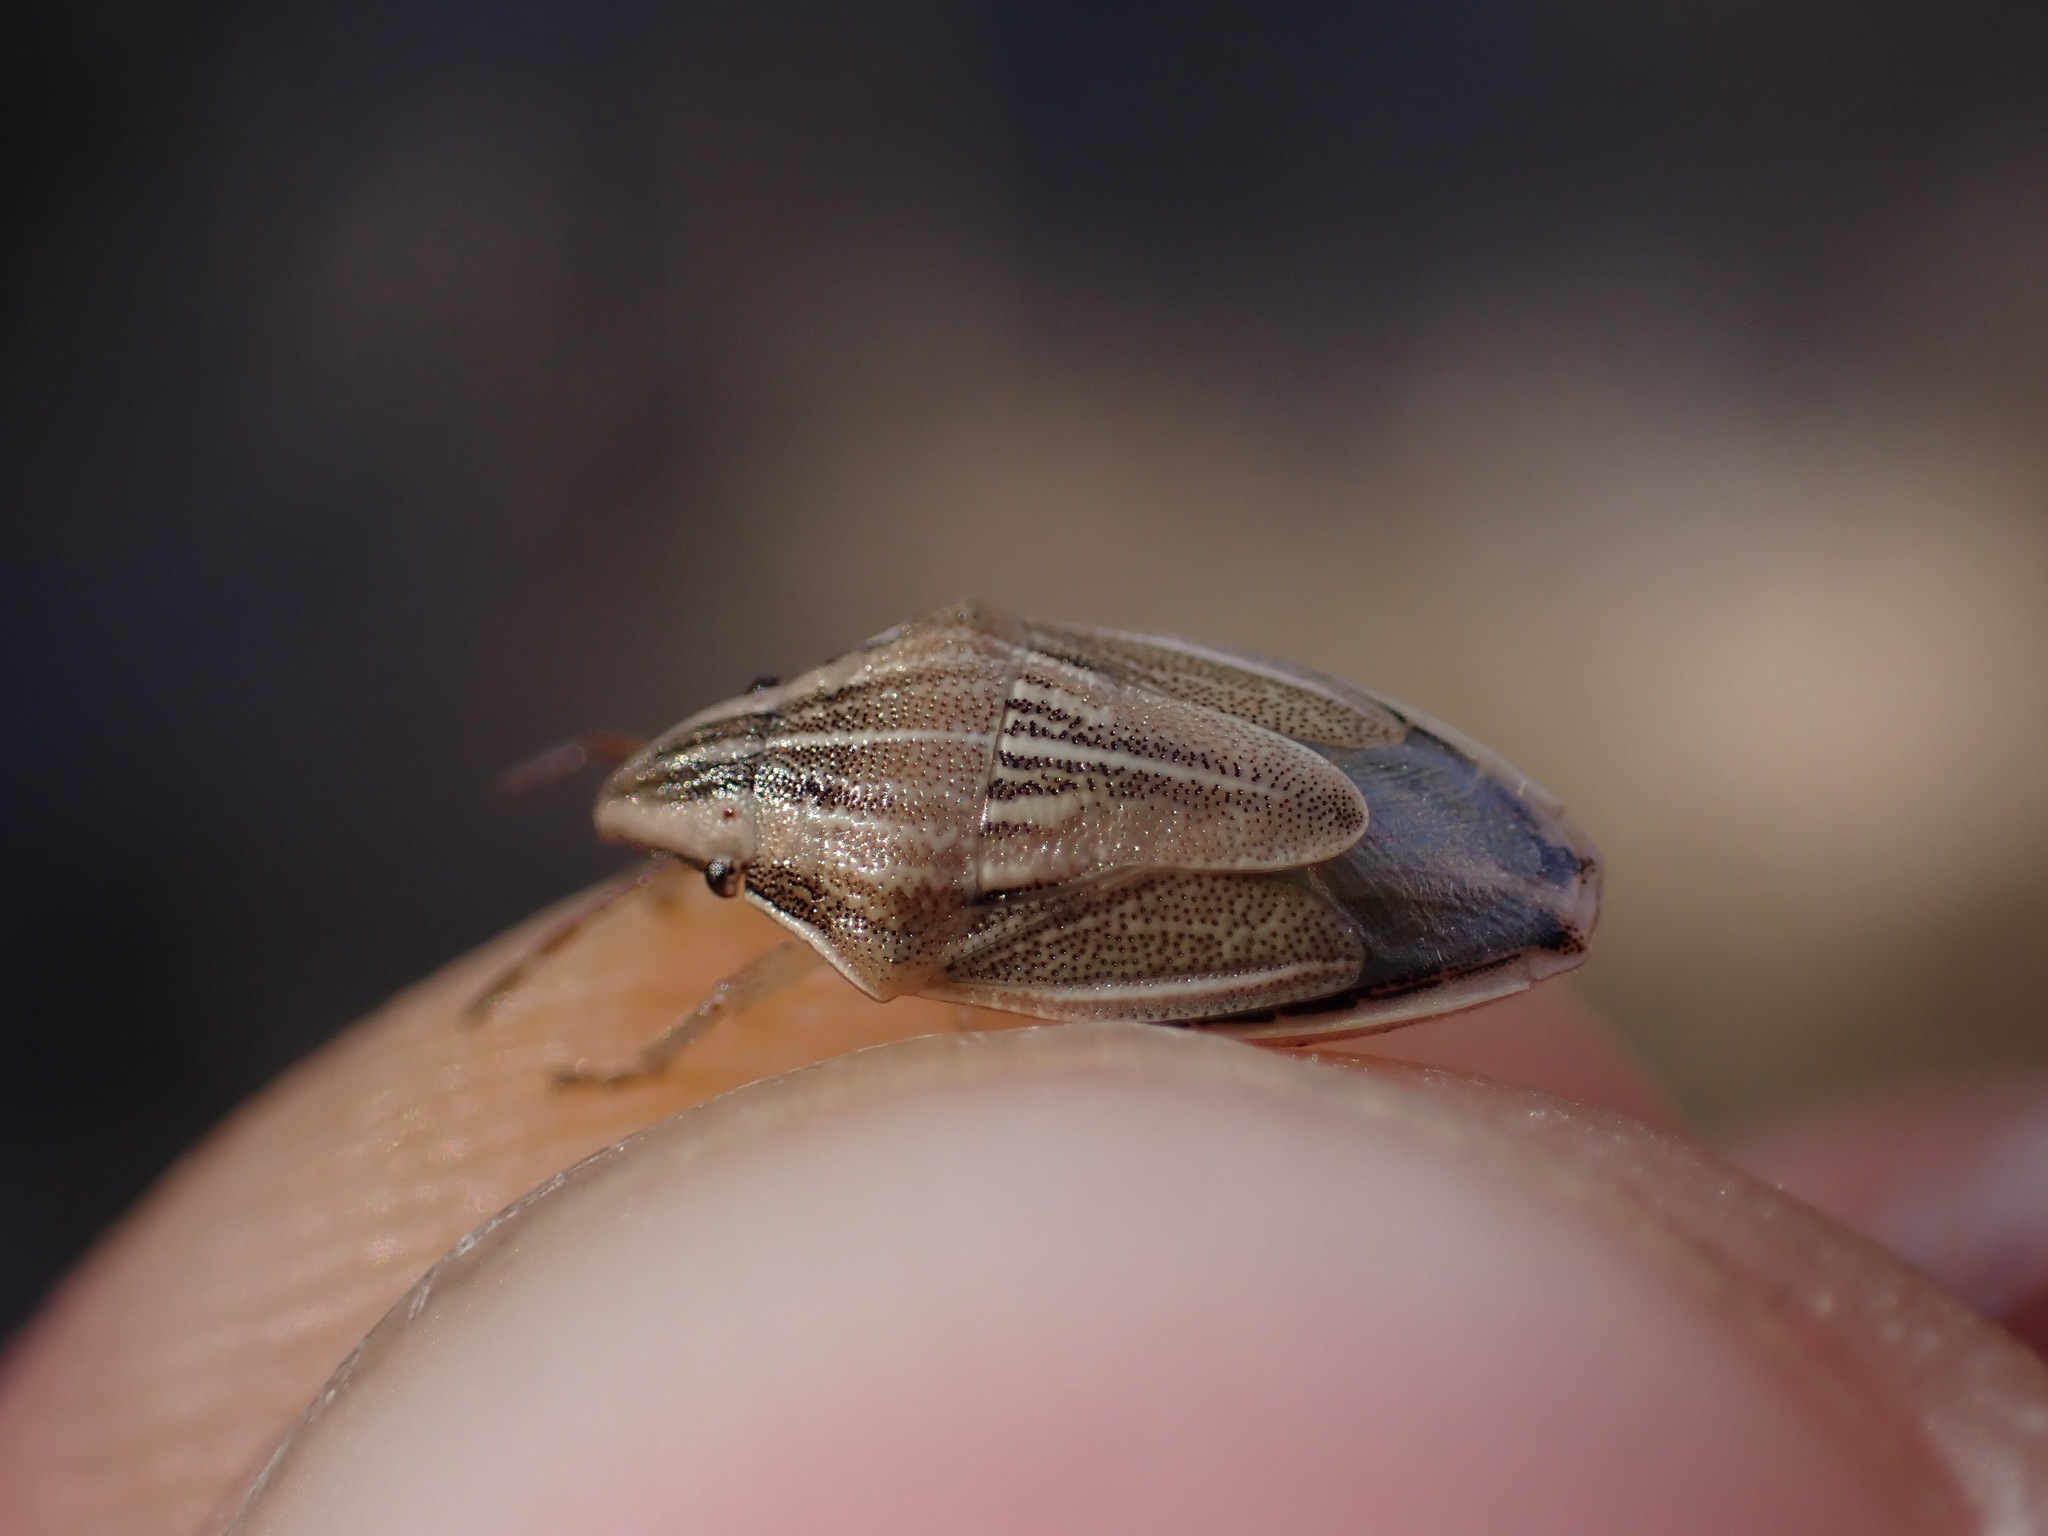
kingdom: Animalia
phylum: Arthropoda
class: Insecta
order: Hemiptera
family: Pentatomidae
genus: Aelia
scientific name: Aelia acuminata
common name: Bishop's mitre
